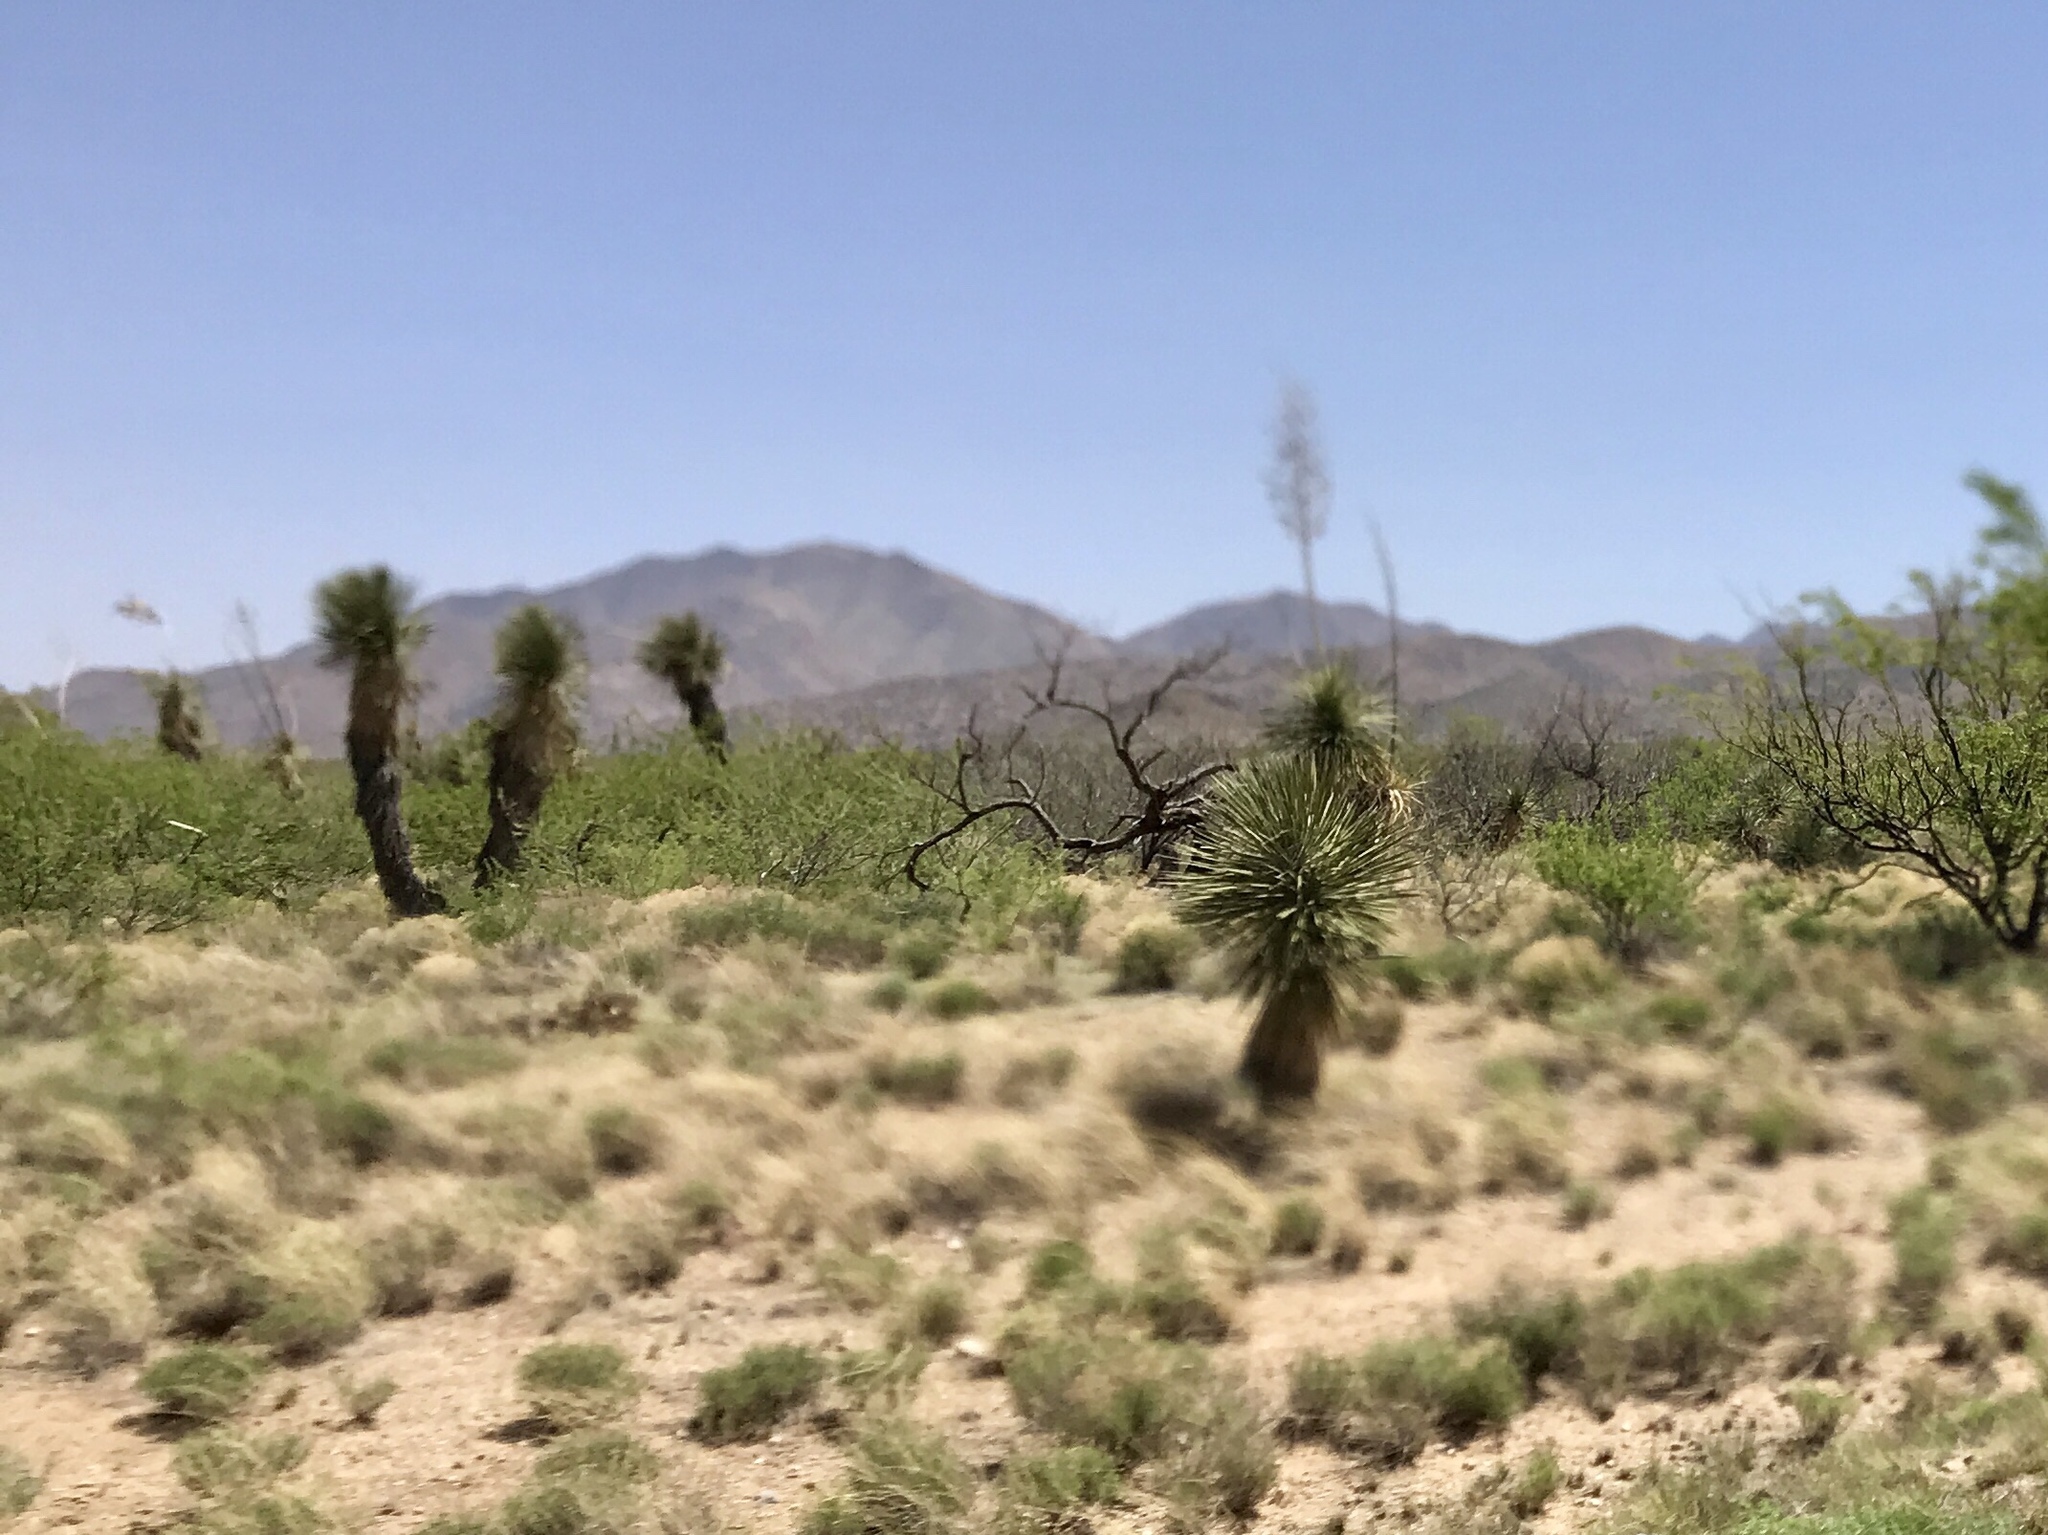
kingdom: Plantae
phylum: Tracheophyta
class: Liliopsida
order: Asparagales
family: Asparagaceae
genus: Yucca
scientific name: Yucca elata
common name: Palmella
